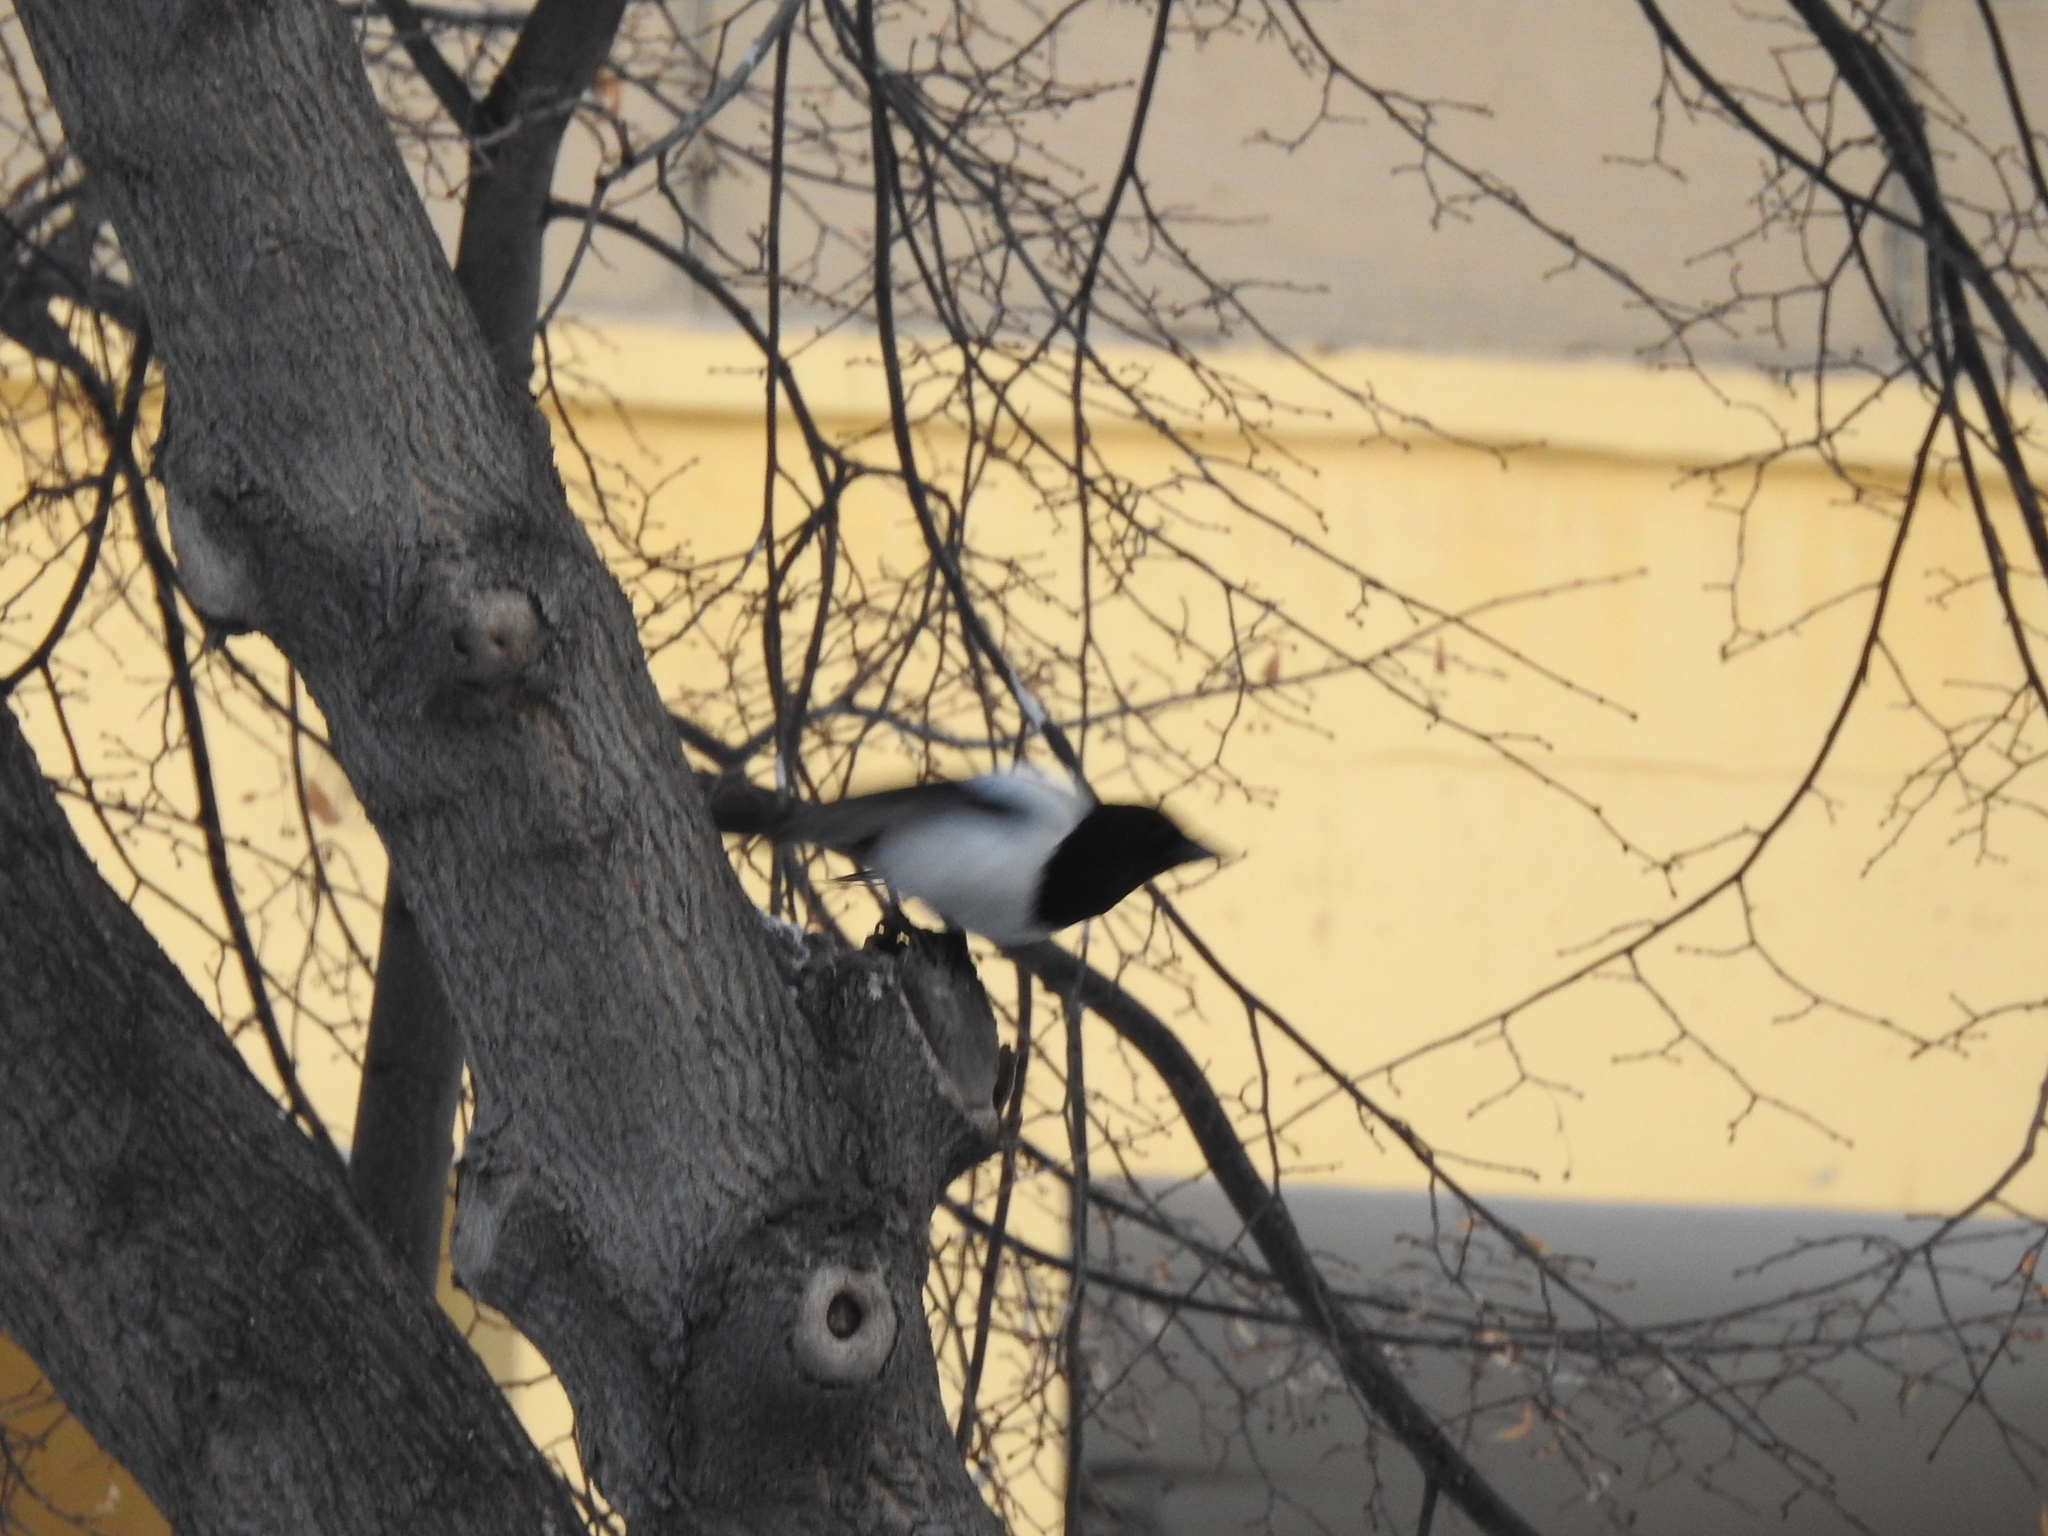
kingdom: Animalia
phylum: Chordata
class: Aves
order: Passeriformes
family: Corvidae
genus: Pica
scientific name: Pica pica
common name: Eurasian magpie
